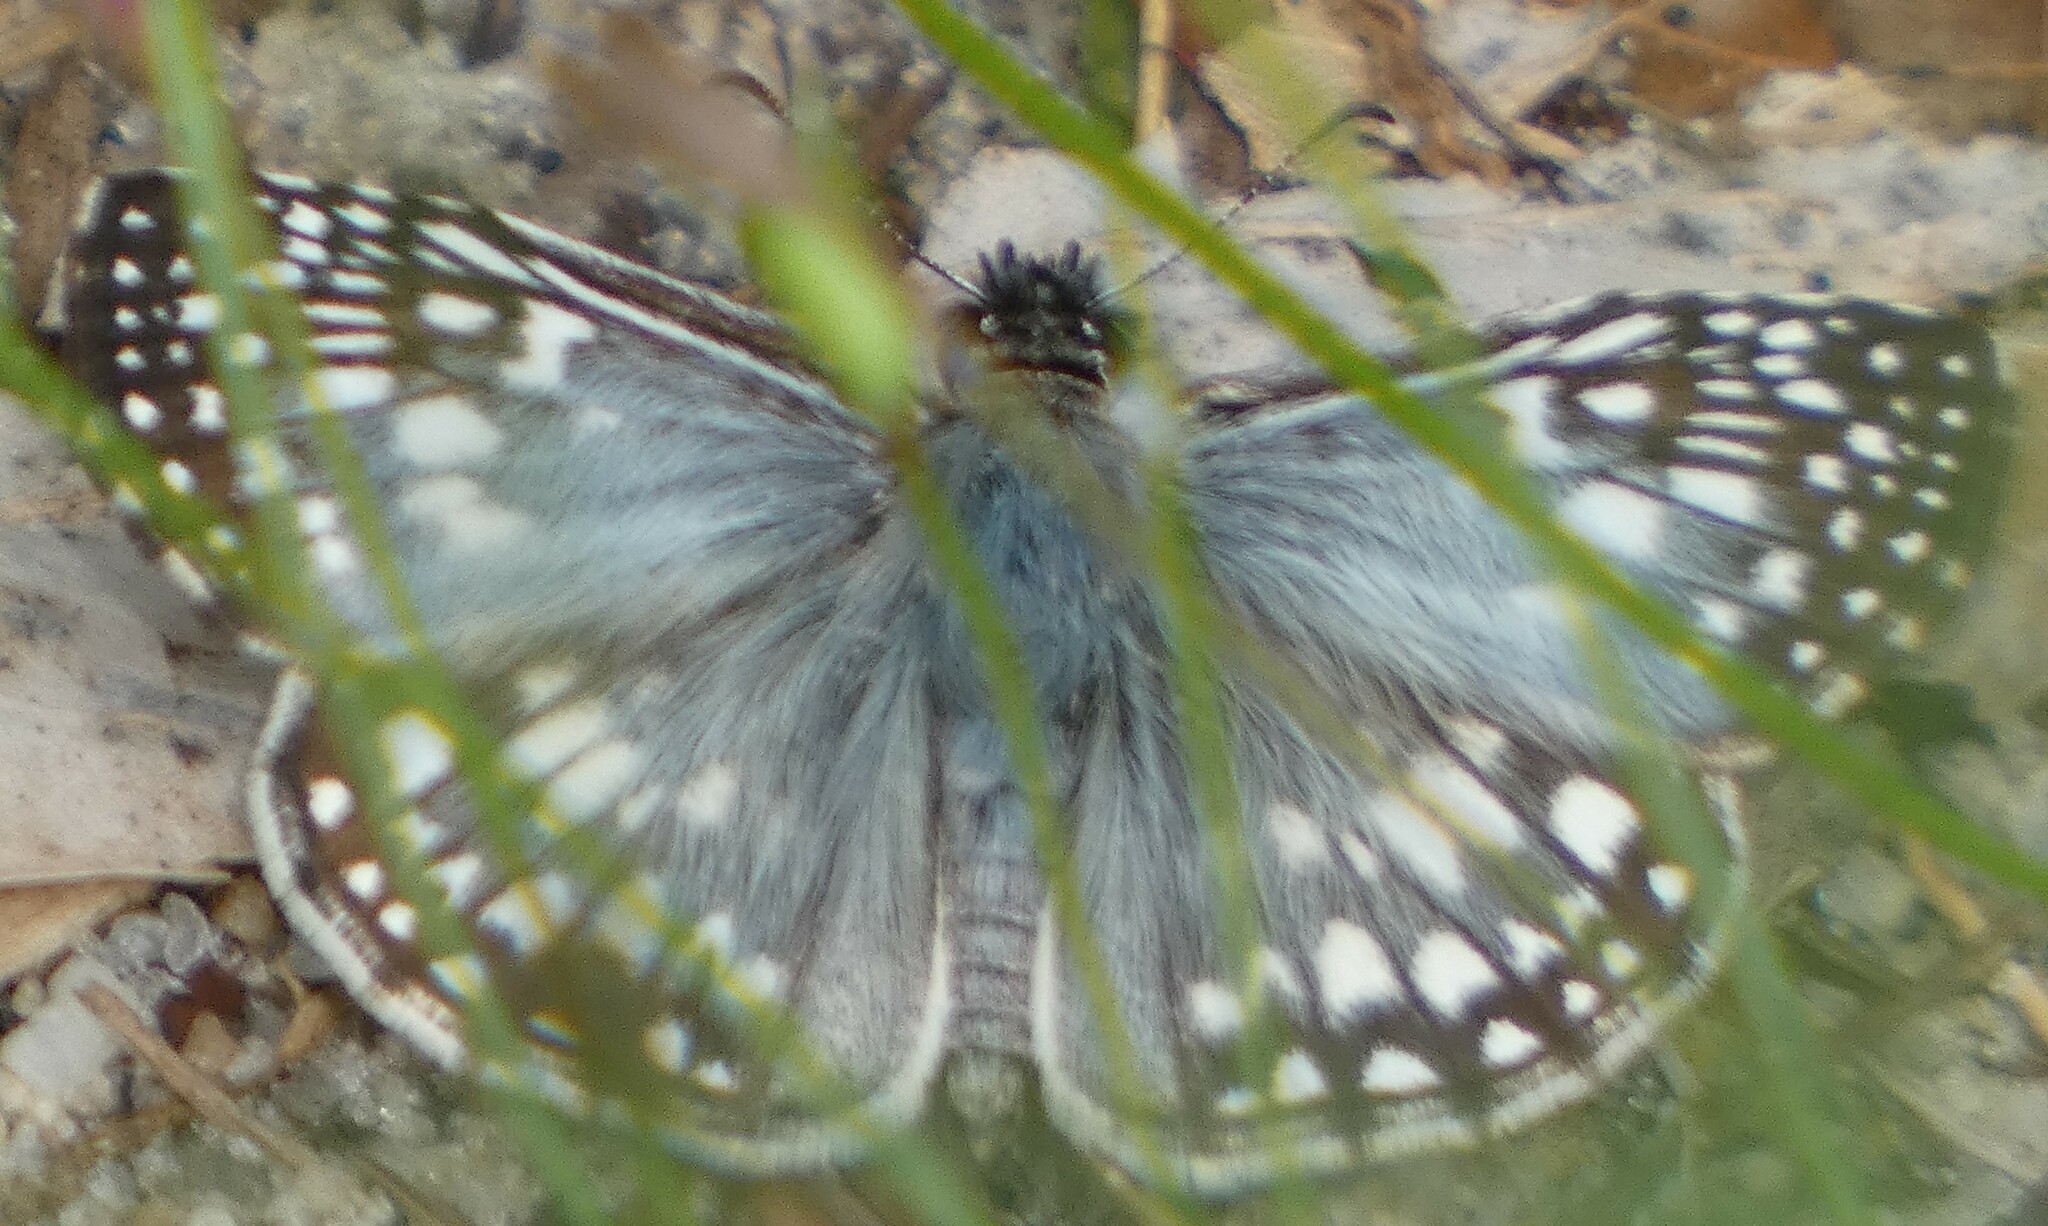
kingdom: Animalia
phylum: Arthropoda
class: Insecta
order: Lepidoptera
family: Hesperiidae
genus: Pyrgus
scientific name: Pyrgus oileus
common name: Tropical checkered-skipper
